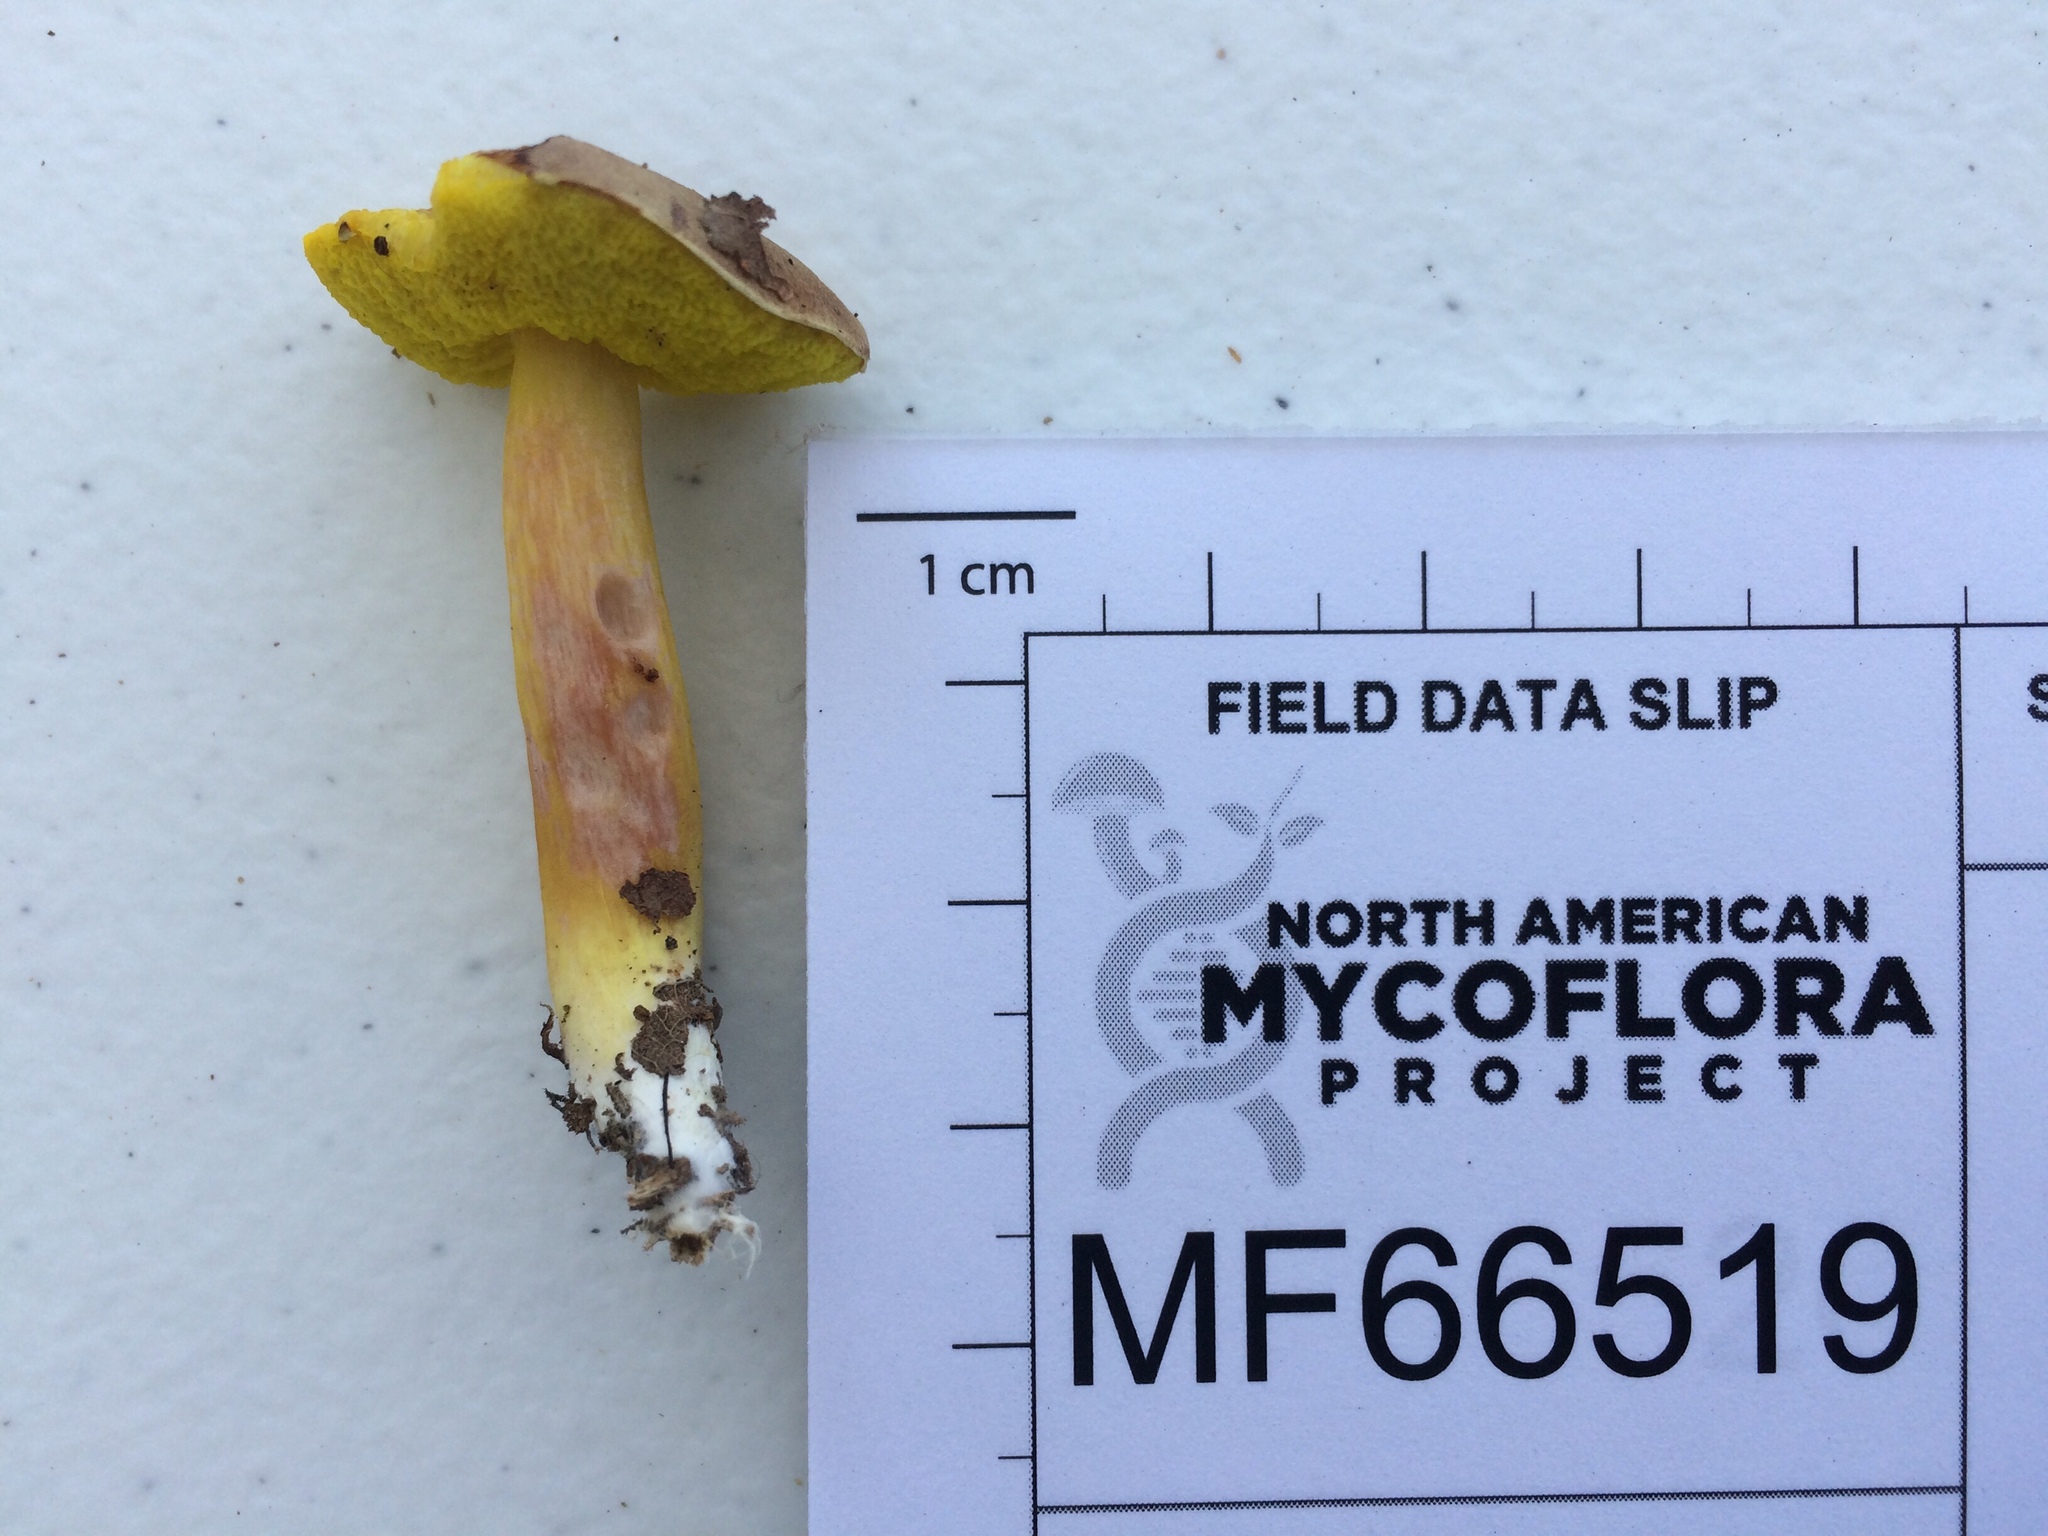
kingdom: Fungi
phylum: Basidiomycota
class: Agaricomycetes
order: Boletales
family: Boletaceae
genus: Aureoboletus
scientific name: Aureoboletus auriporus
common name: Sour gold-pored bolete
